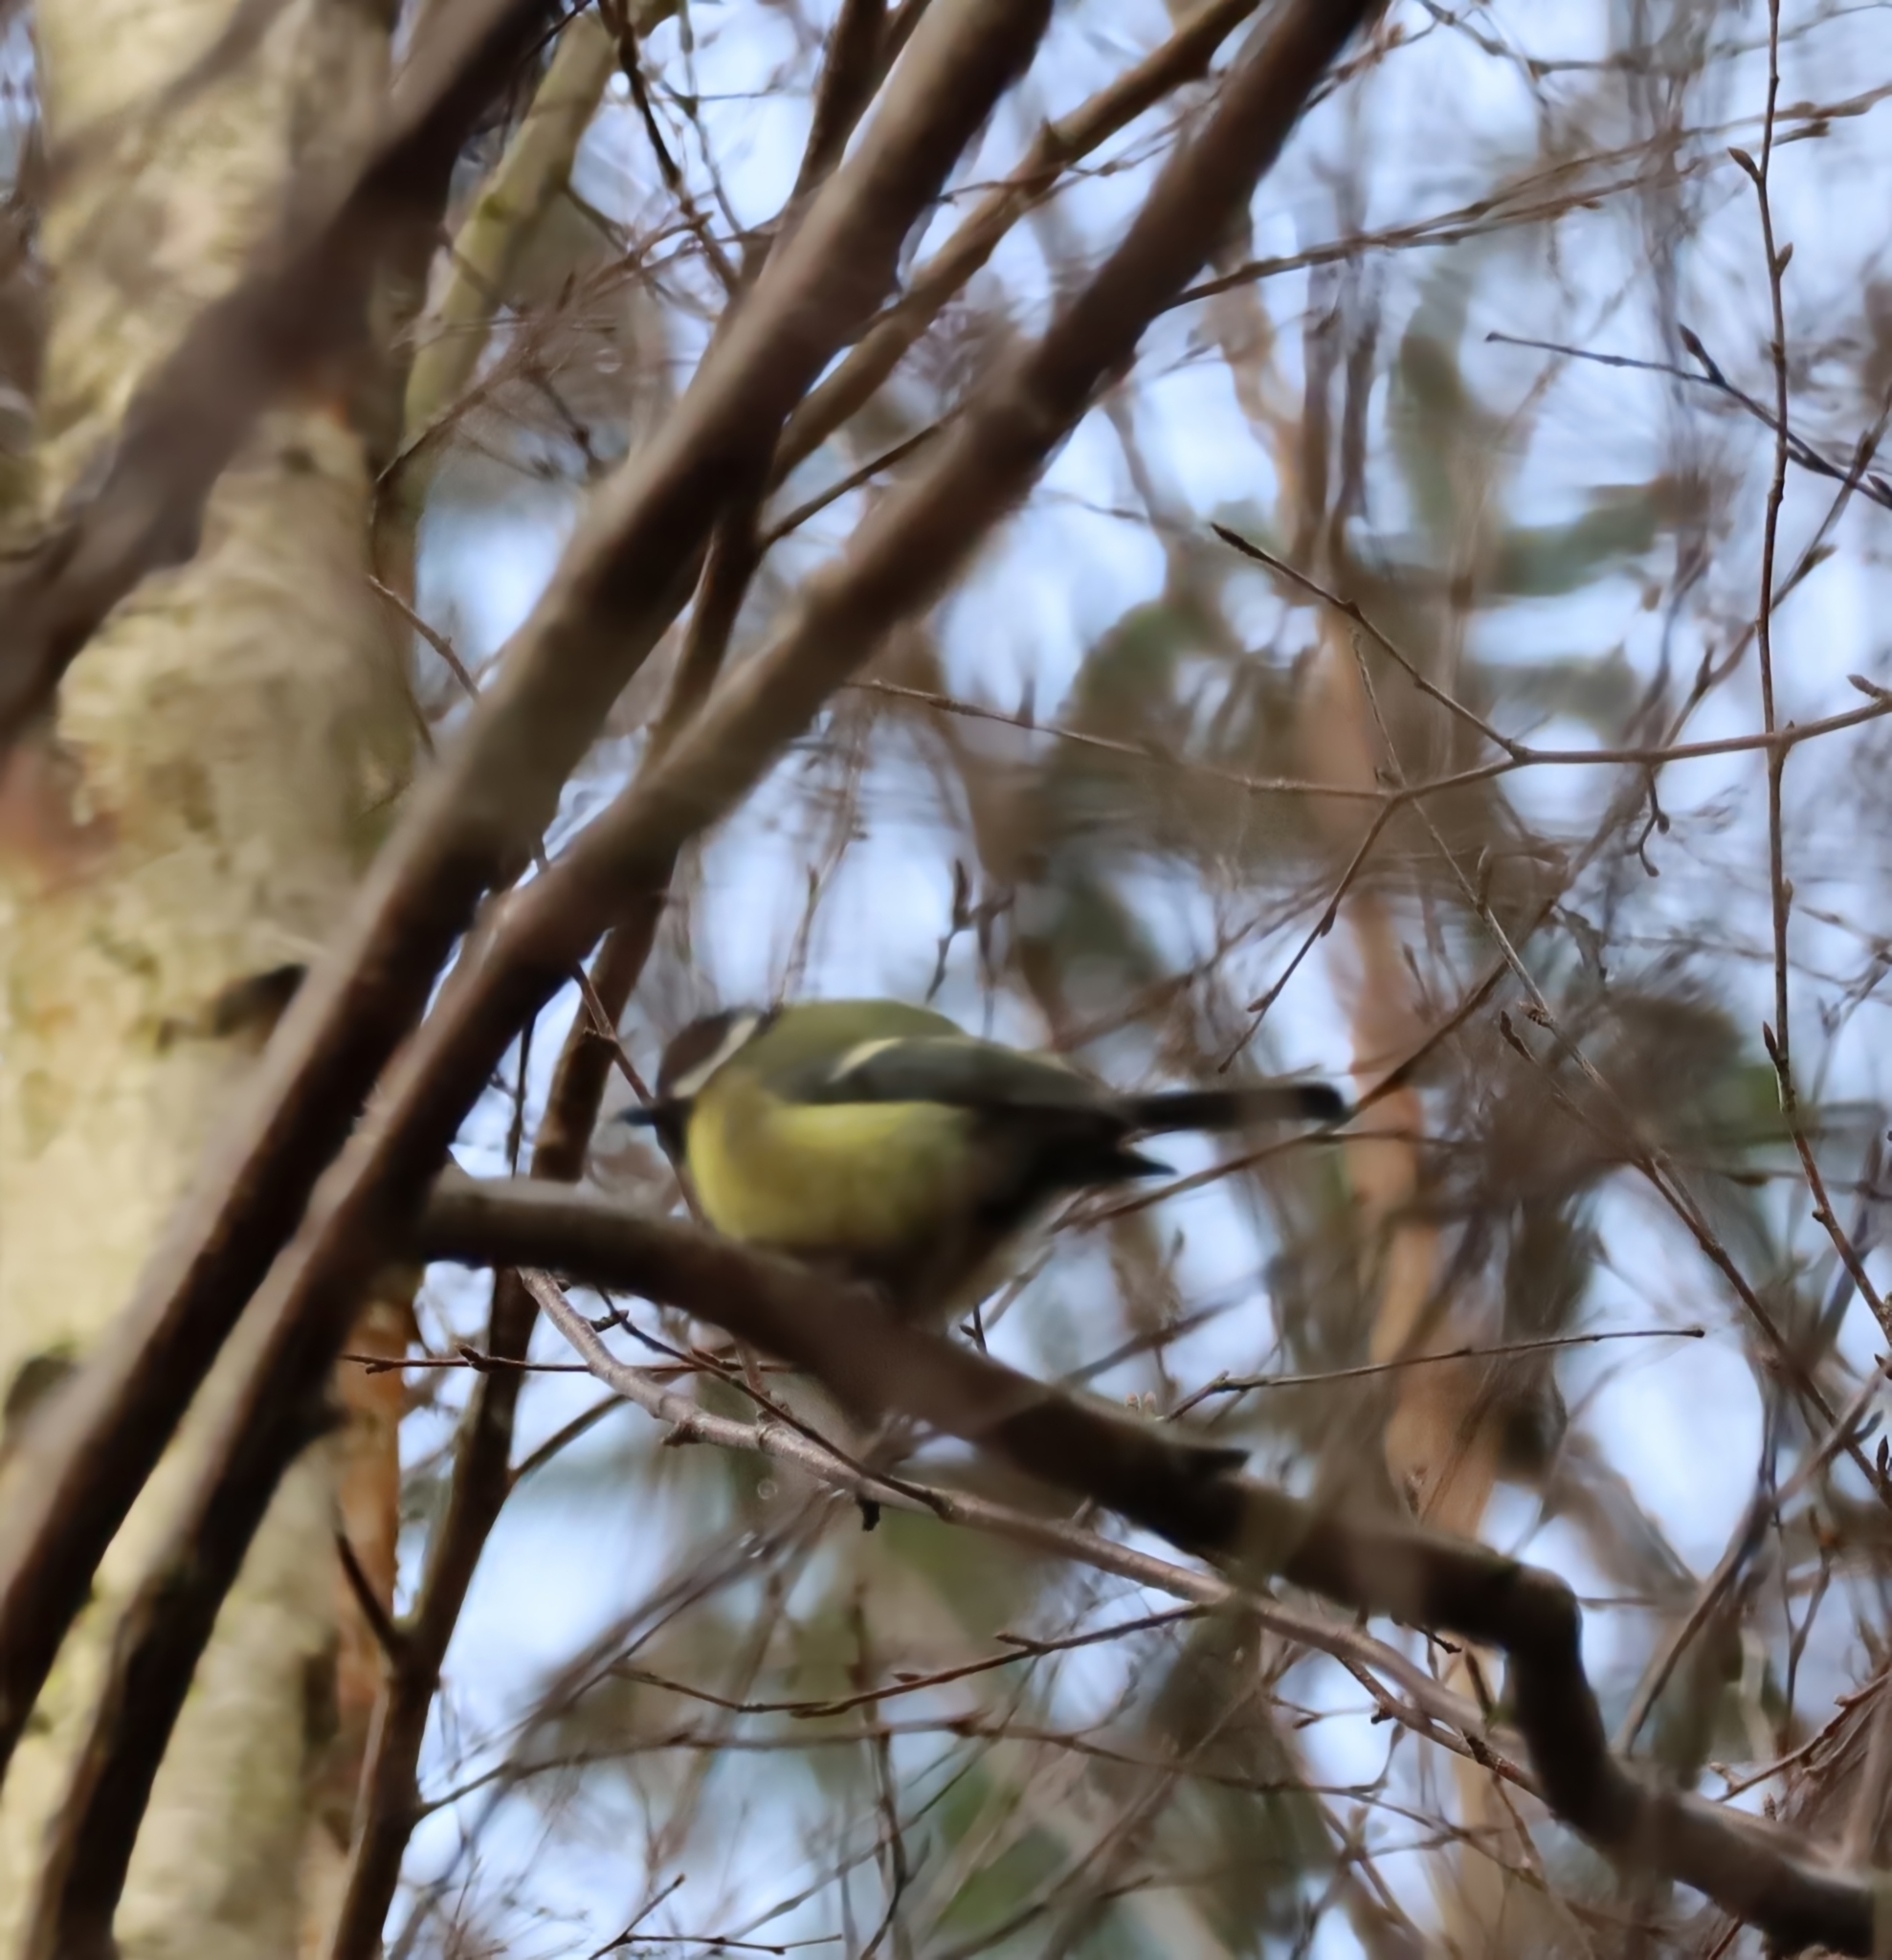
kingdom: Animalia
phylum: Chordata
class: Aves
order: Passeriformes
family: Paridae
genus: Parus
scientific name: Parus major
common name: Great tit
